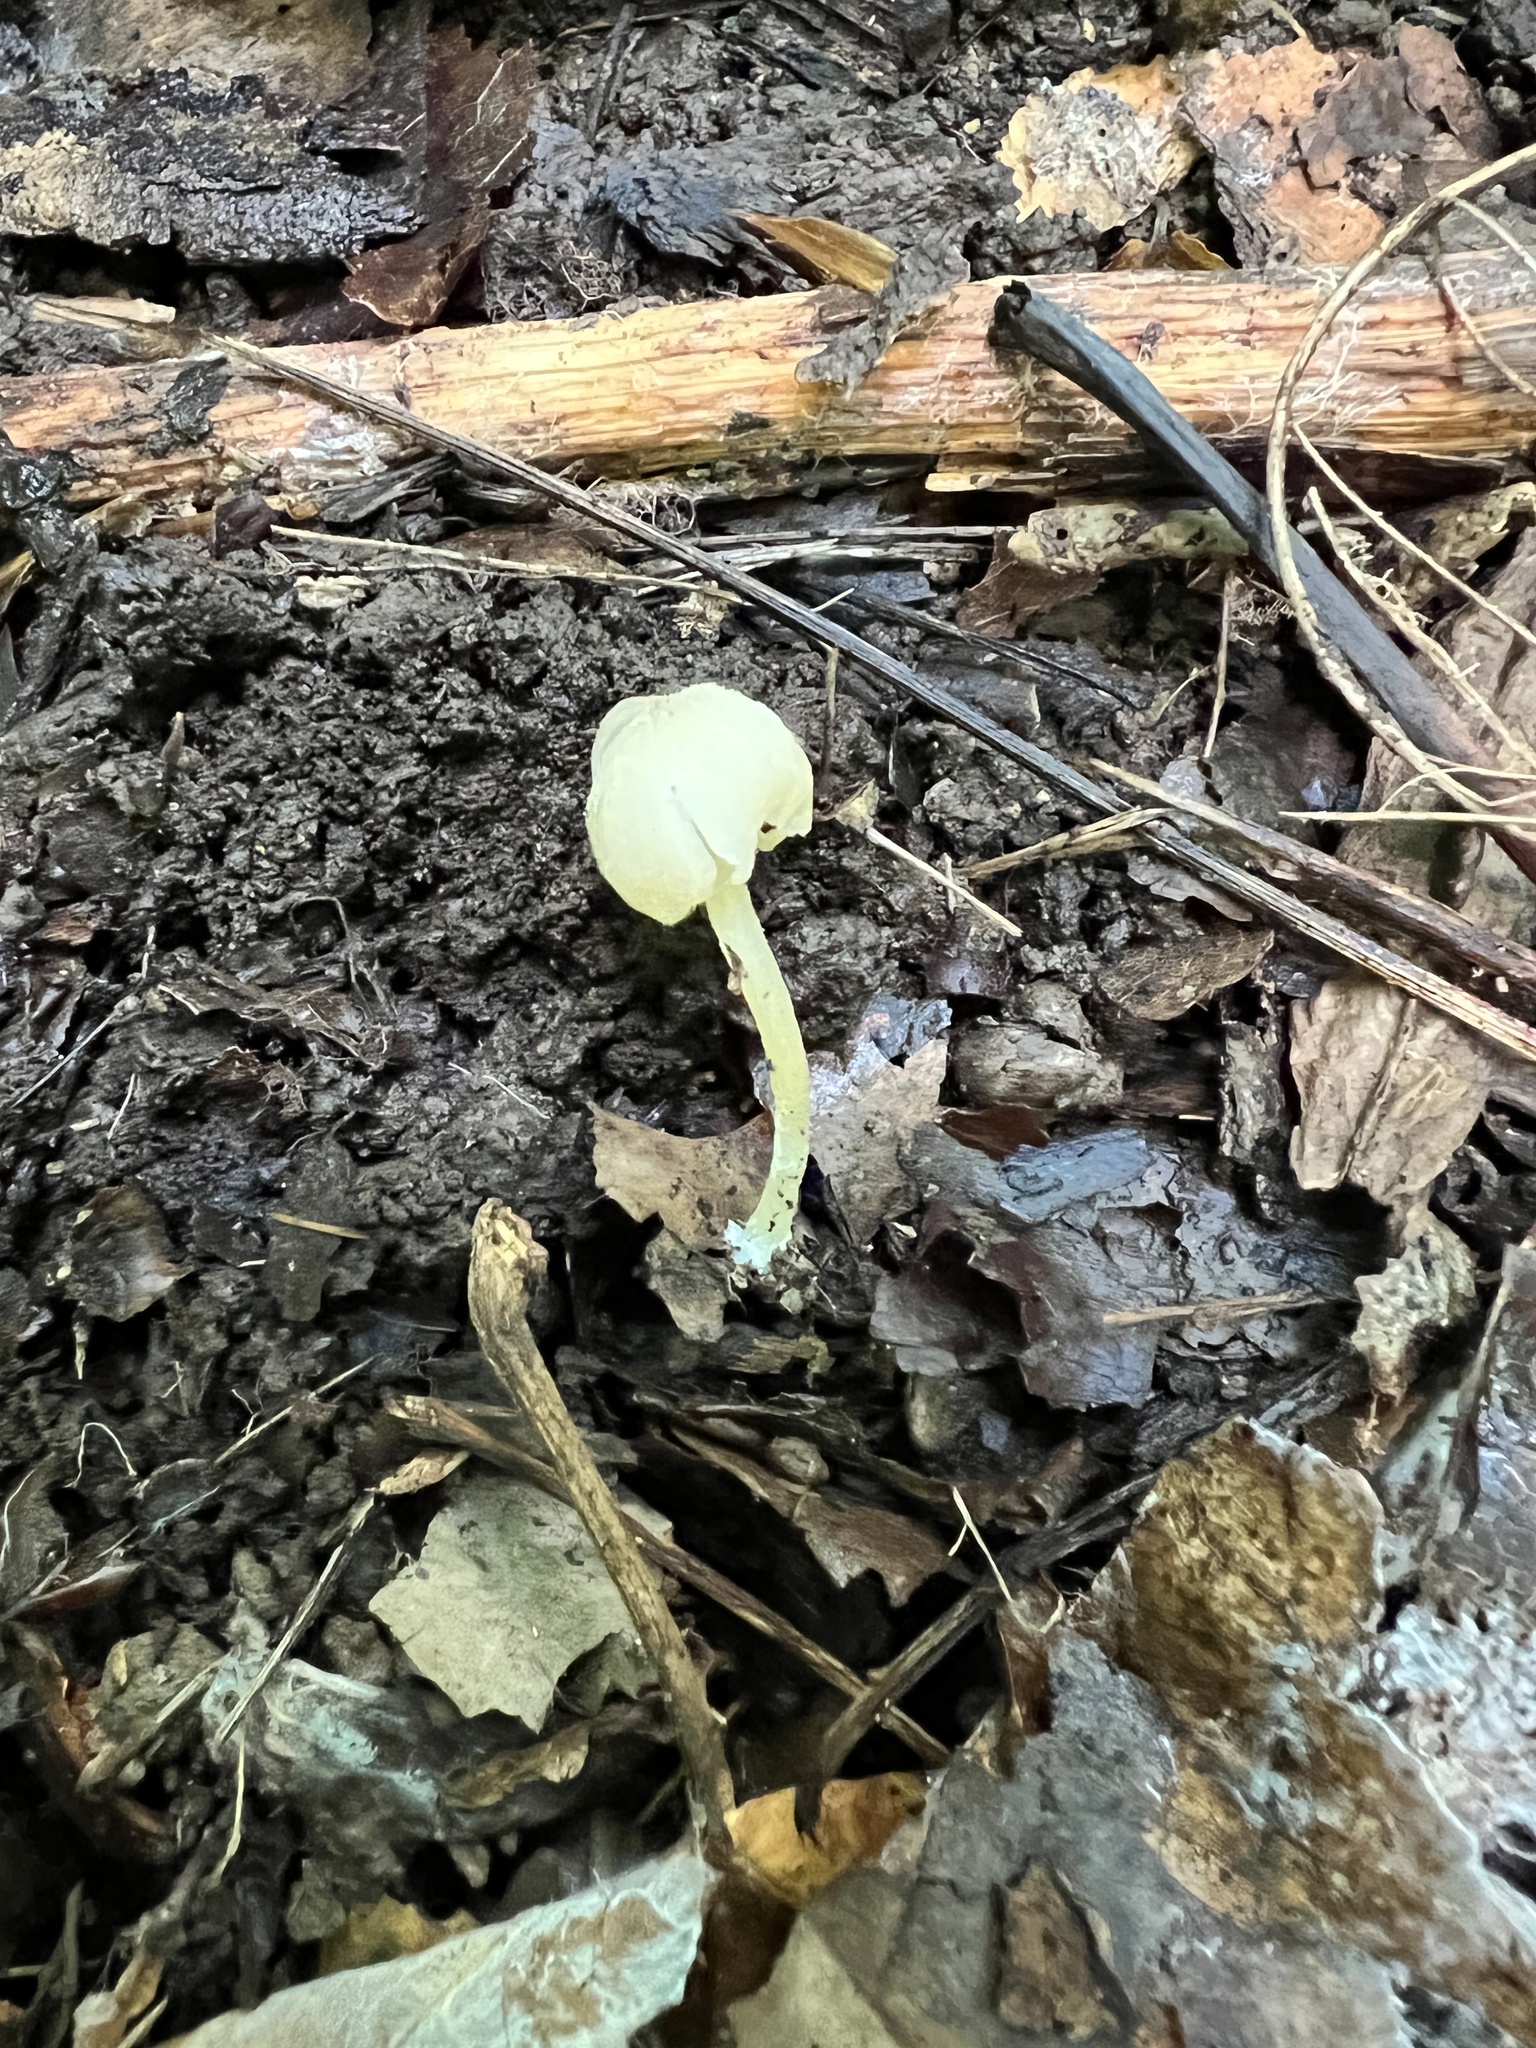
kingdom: Fungi
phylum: Basidiomycota
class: Agaricomycetes
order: Agaricales
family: Entolomataceae
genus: Entoloma
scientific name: Entoloma olivaceomarginatum
